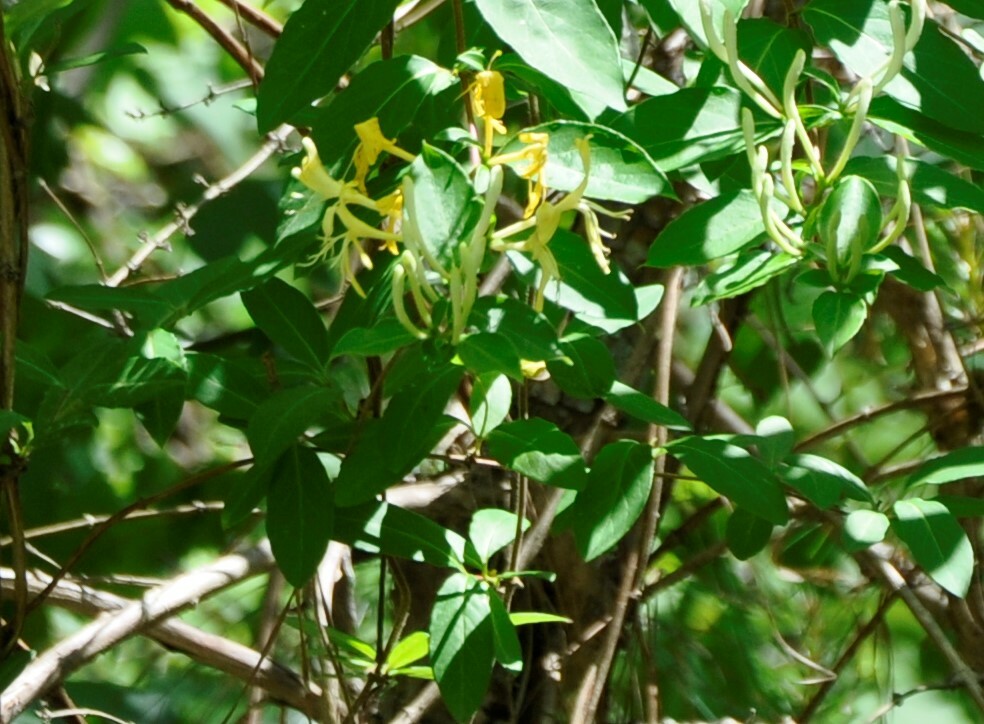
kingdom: Plantae
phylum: Tracheophyta
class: Magnoliopsida
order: Dipsacales
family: Caprifoliaceae
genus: Lonicera
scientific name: Lonicera japonica
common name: Japanese honeysuckle
